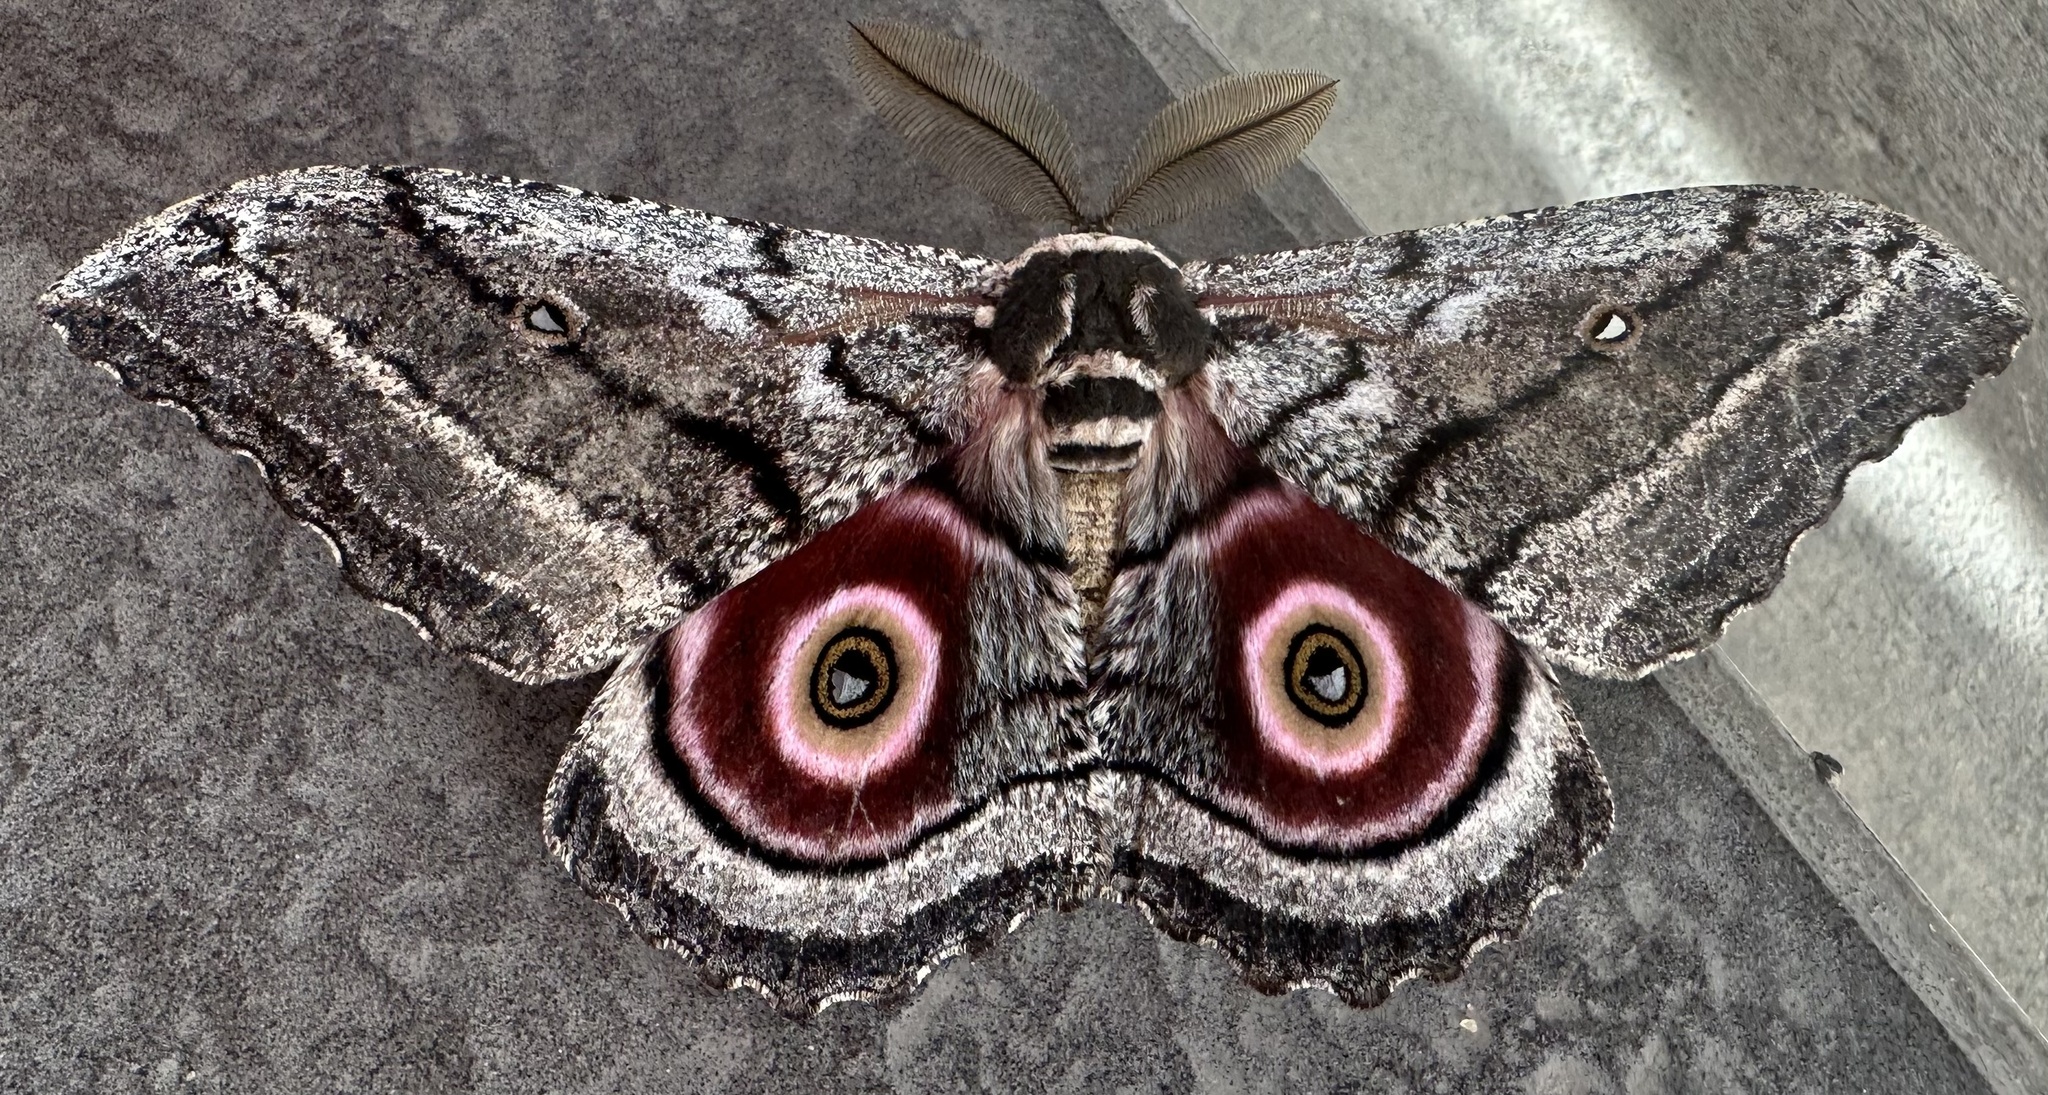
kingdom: Animalia
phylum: Arthropoda
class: Insecta
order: Lepidoptera
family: Saturniidae
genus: Gynanisa
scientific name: Gynanisa maja
